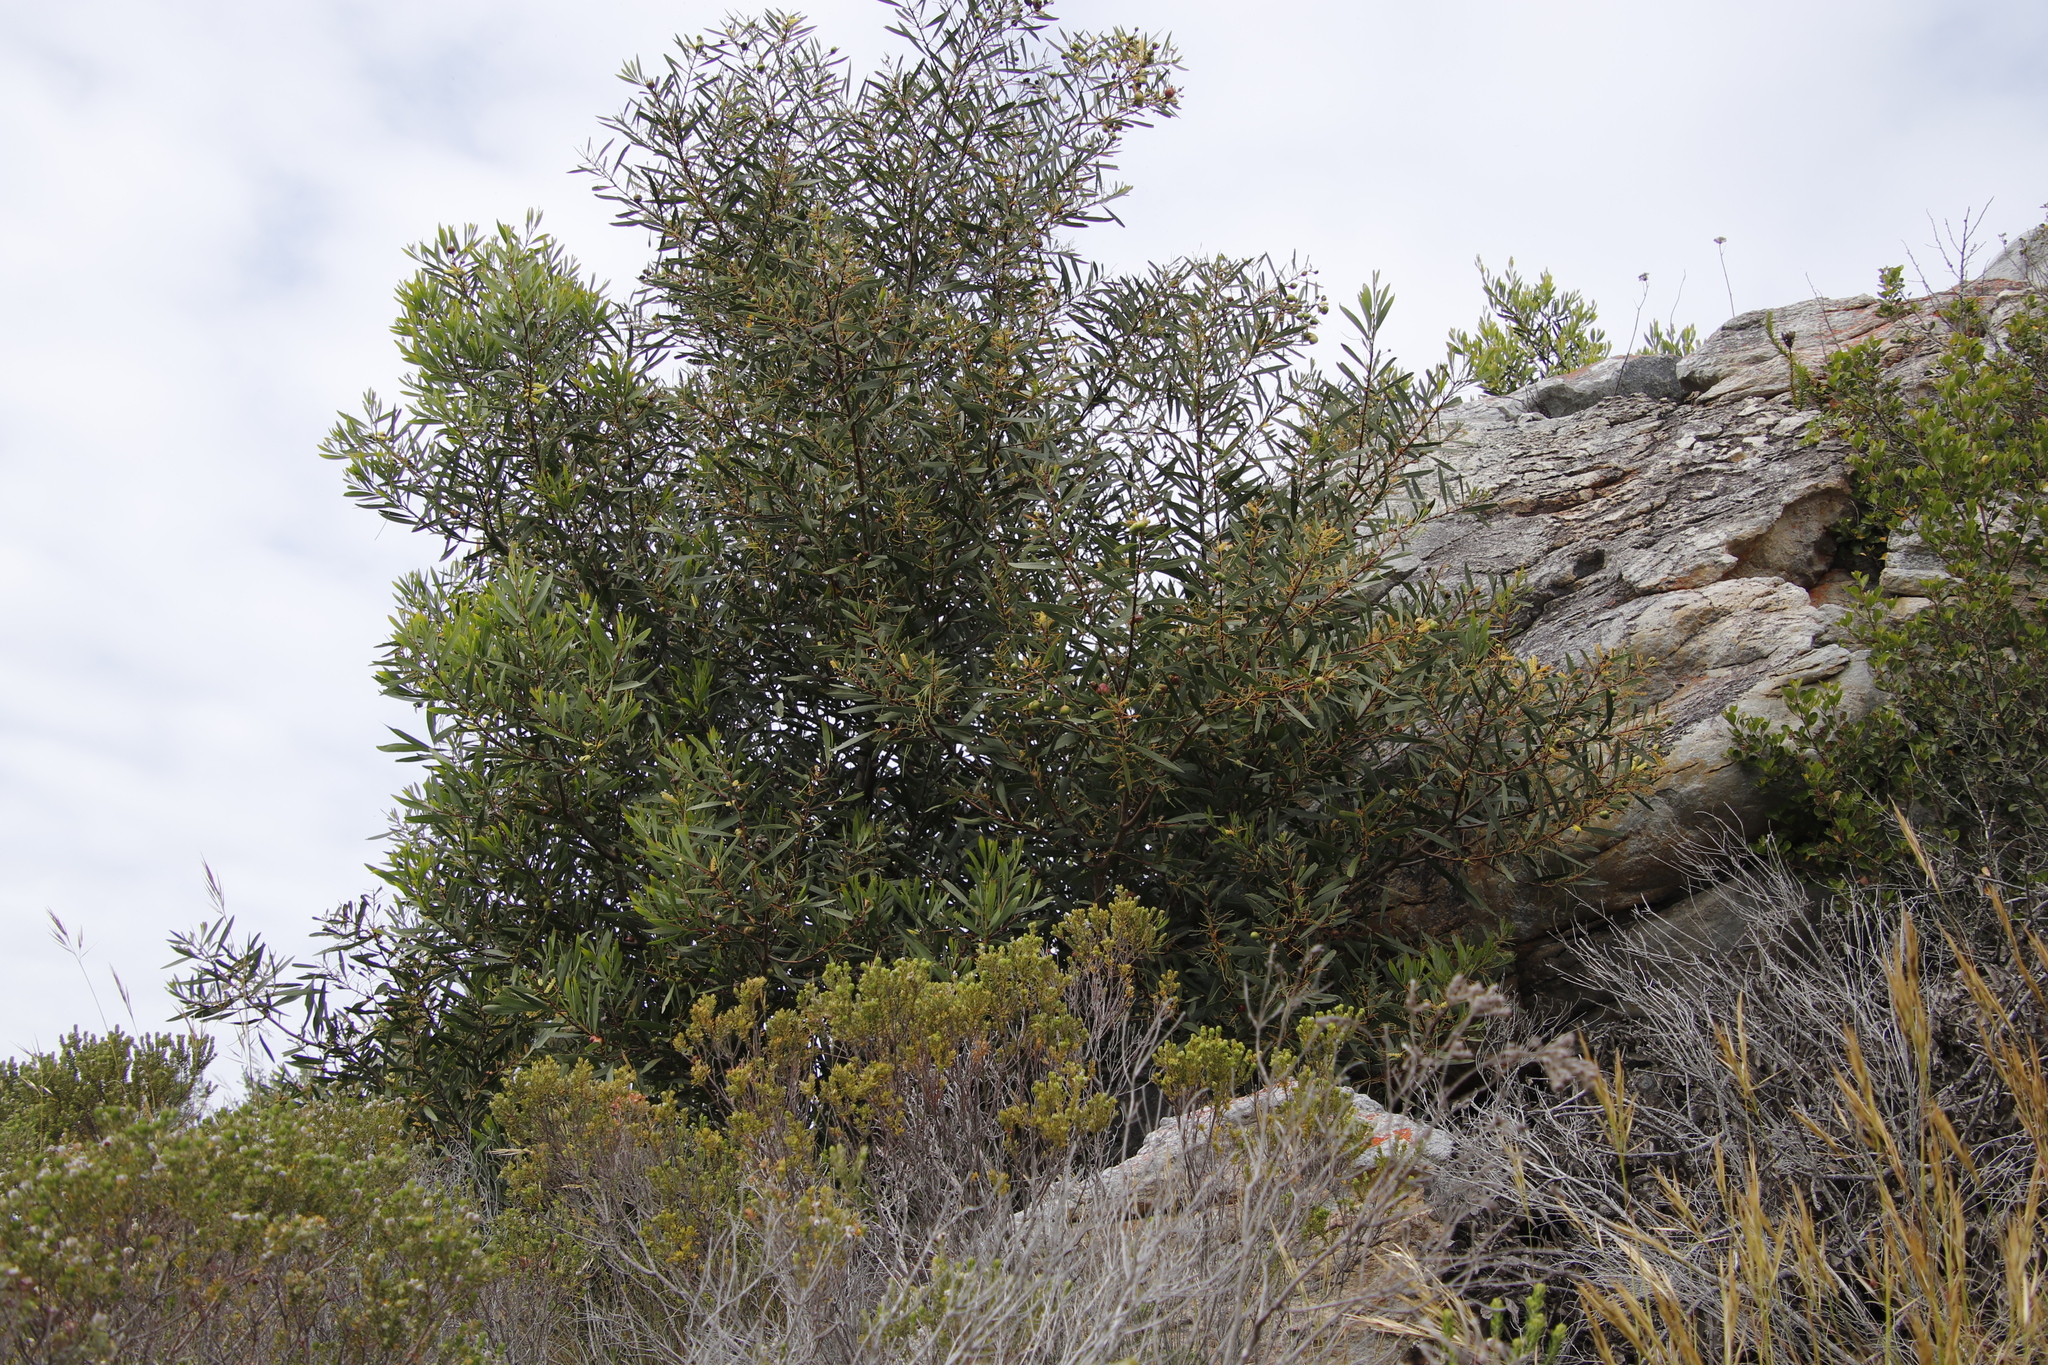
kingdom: Plantae
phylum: Tracheophyta
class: Magnoliopsida
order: Fabales
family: Fabaceae
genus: Acacia
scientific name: Acacia longifolia
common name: Sydney golden wattle
